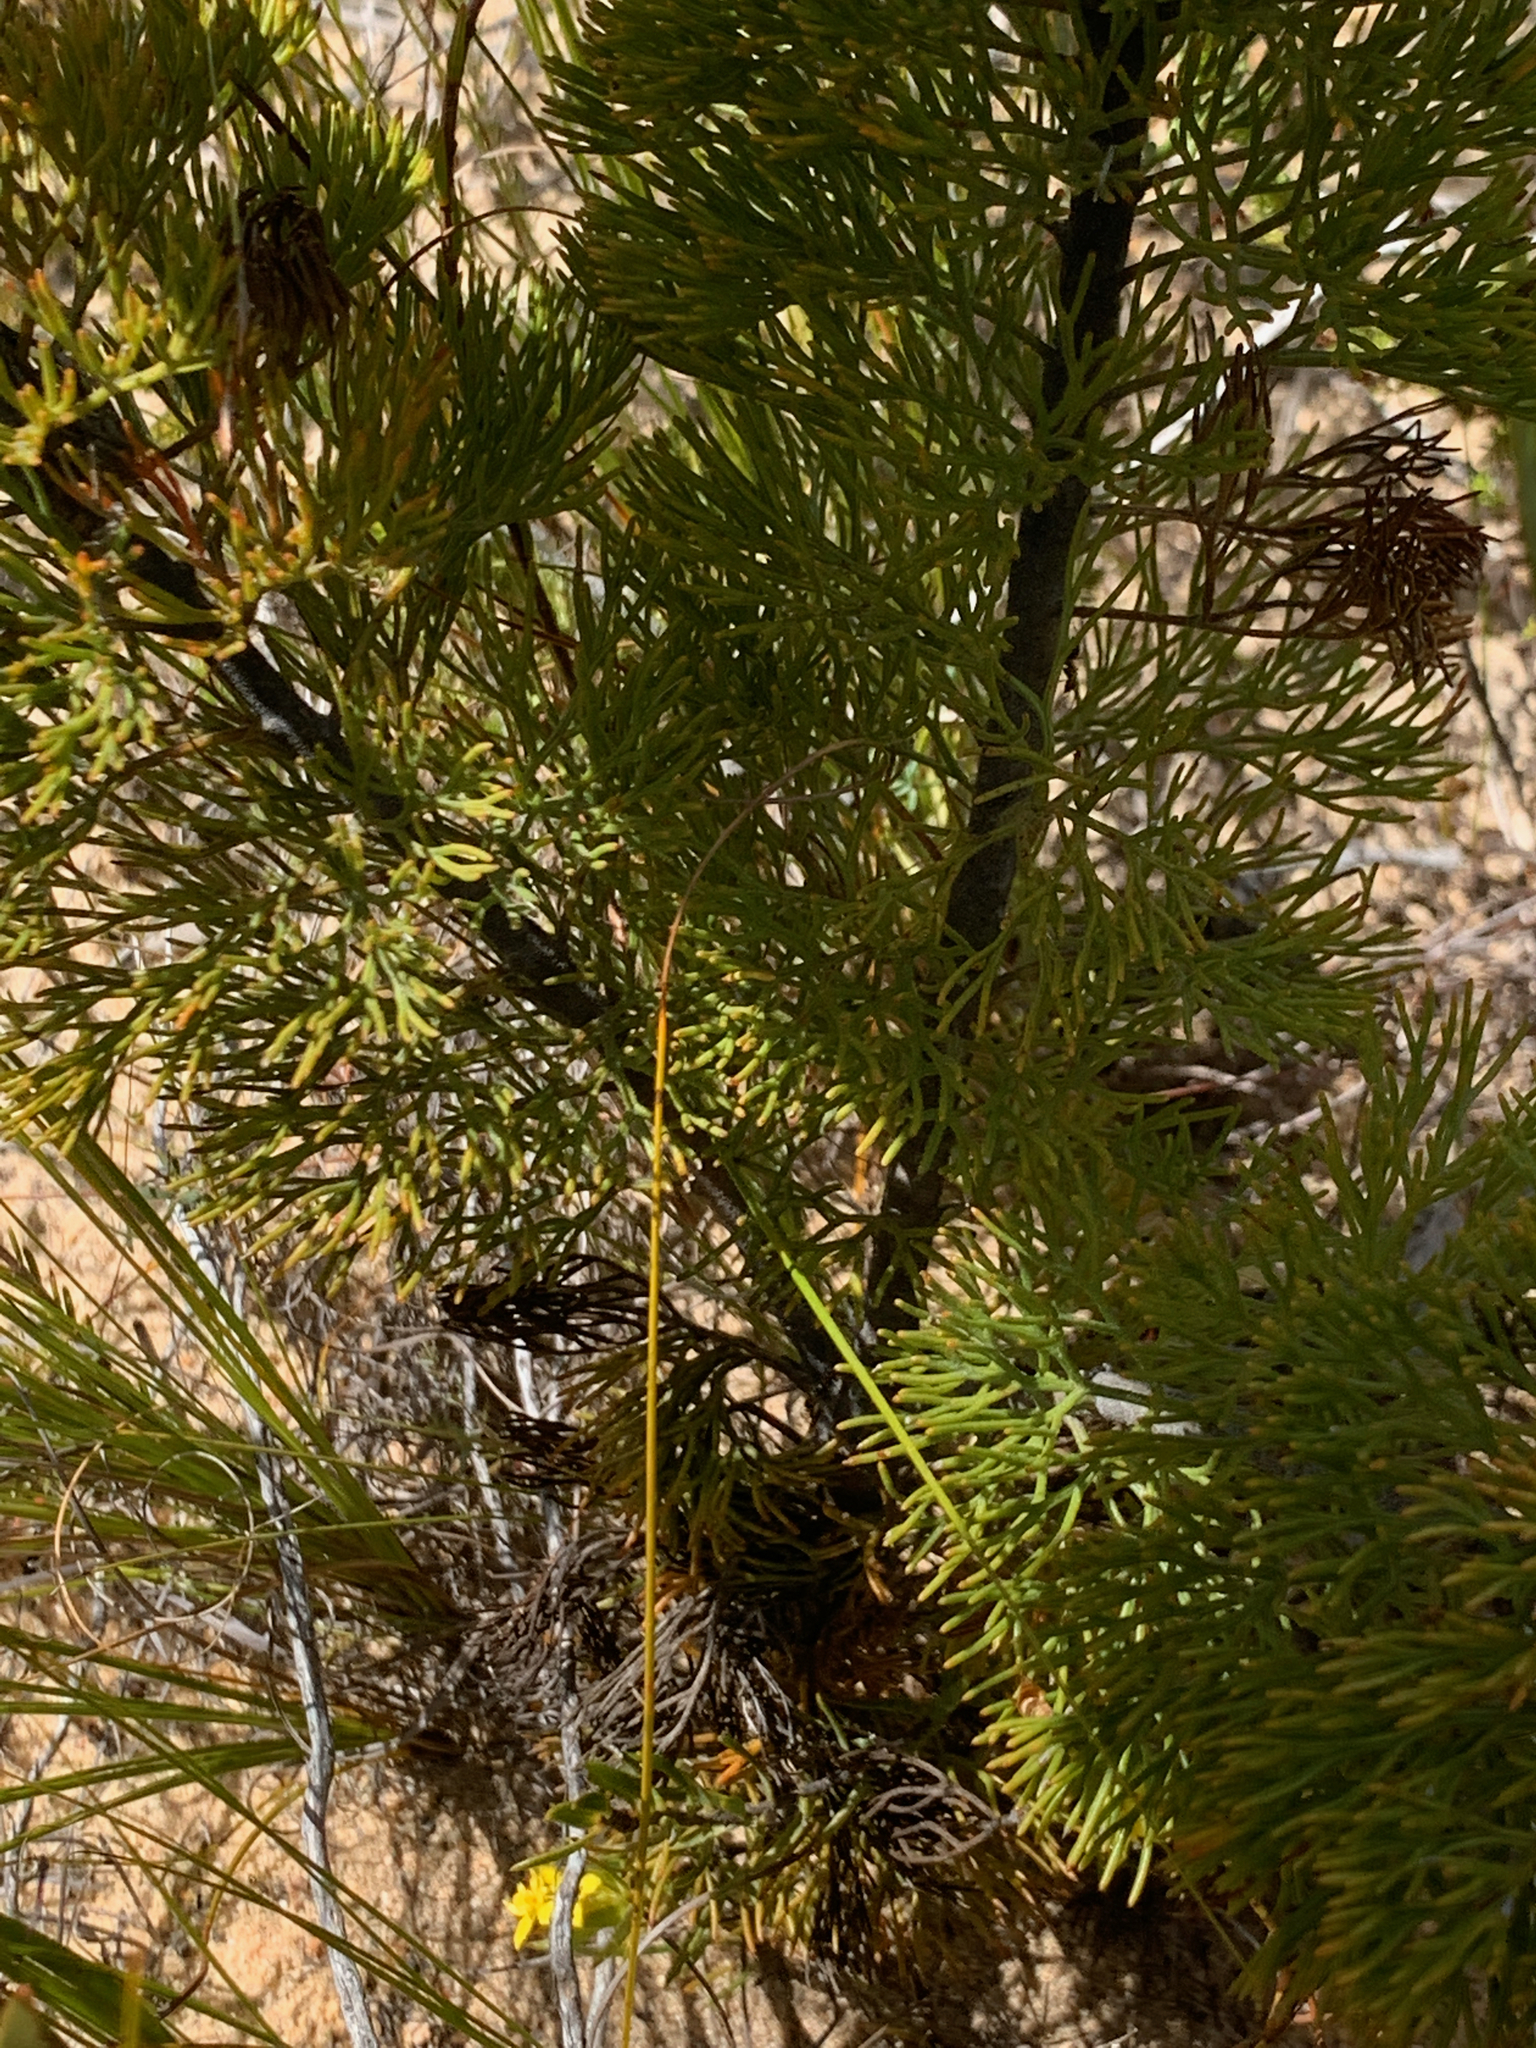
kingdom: Plantae
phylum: Tracheophyta
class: Magnoliopsida
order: Proteales
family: Proteaceae
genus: Paranomus
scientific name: Paranomus bolusii
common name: Overberg sceptre
